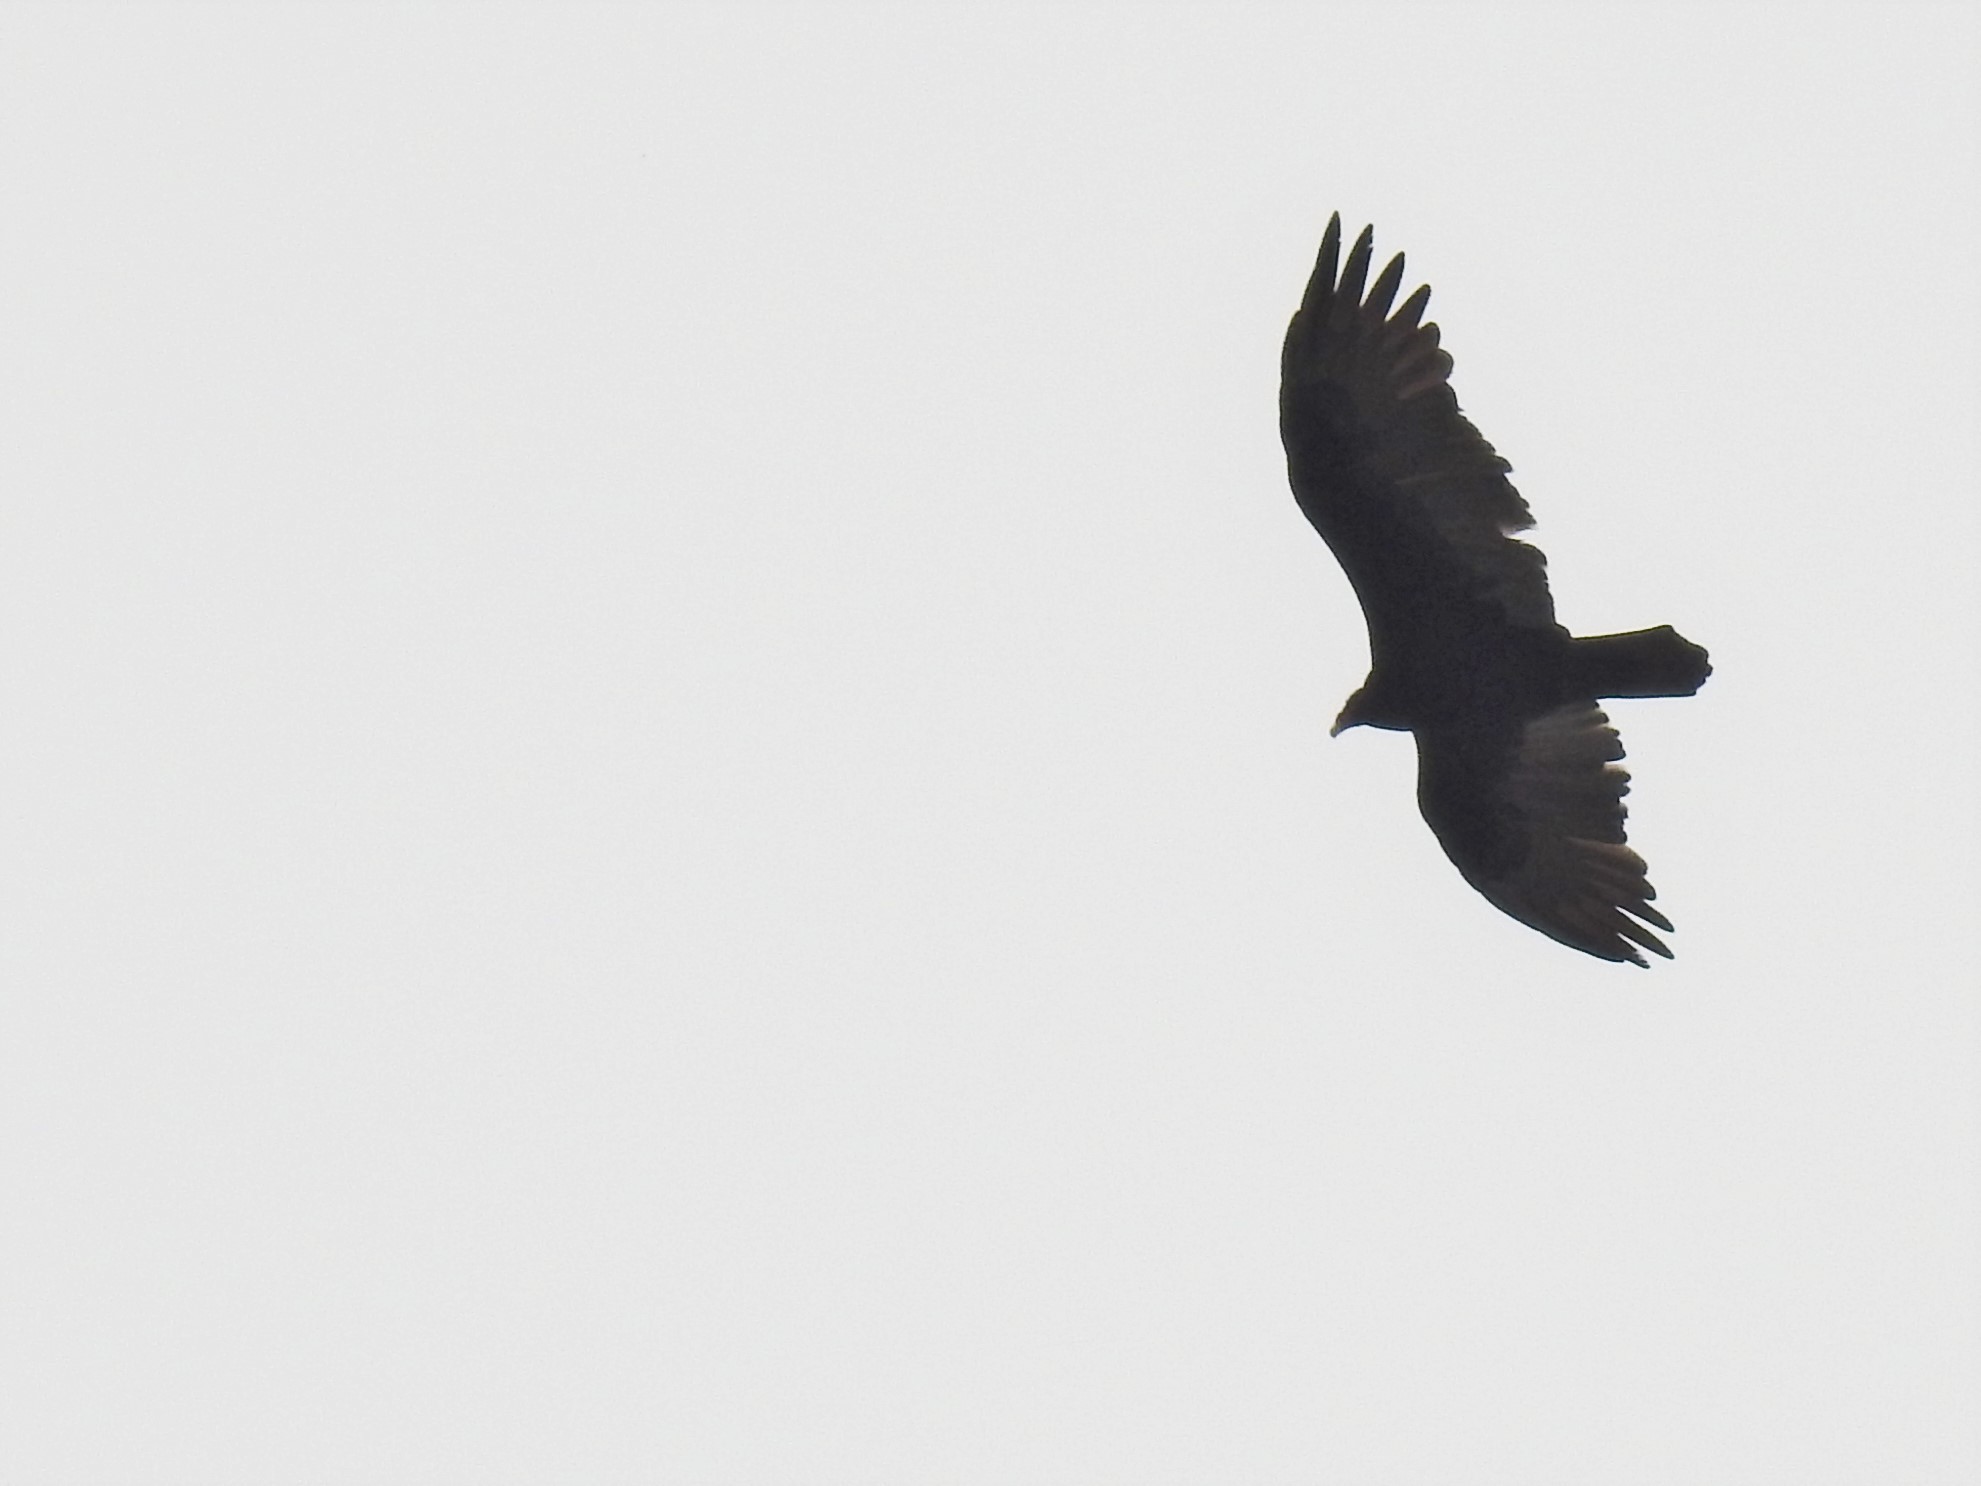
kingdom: Animalia
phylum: Chordata
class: Aves
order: Accipitriformes
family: Cathartidae
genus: Cathartes
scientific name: Cathartes aura
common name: Turkey vulture
